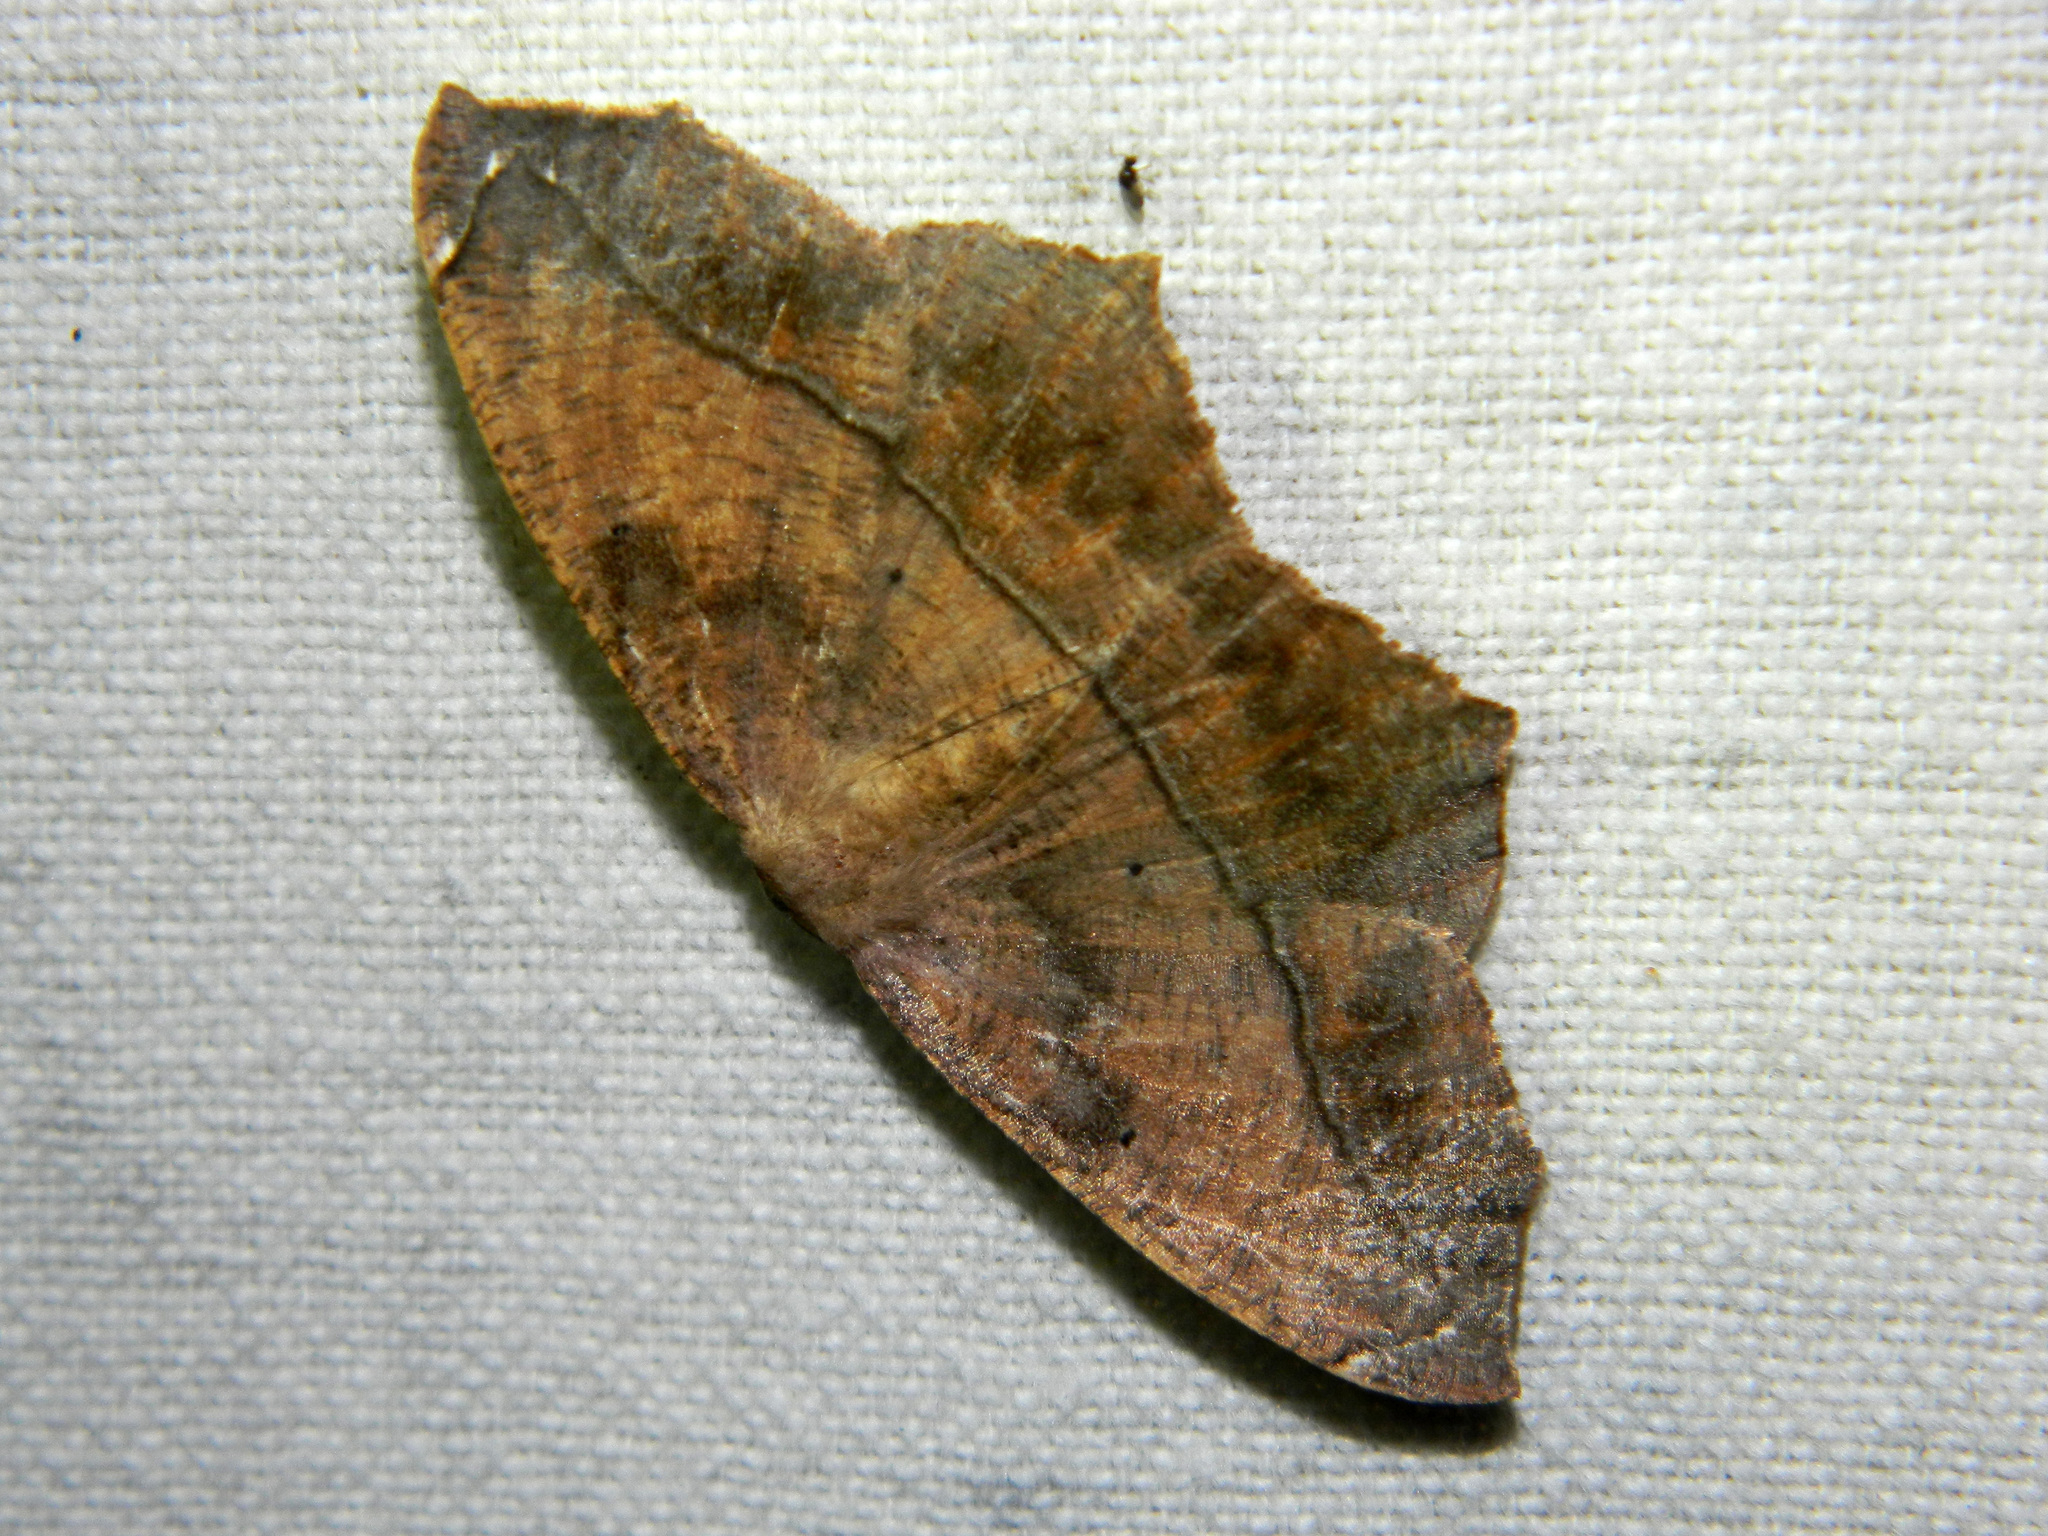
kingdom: Animalia
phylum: Arthropoda
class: Insecta
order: Lepidoptera
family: Geometridae
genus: Prochoerodes
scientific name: Prochoerodes lineola
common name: Large maple spanworm
